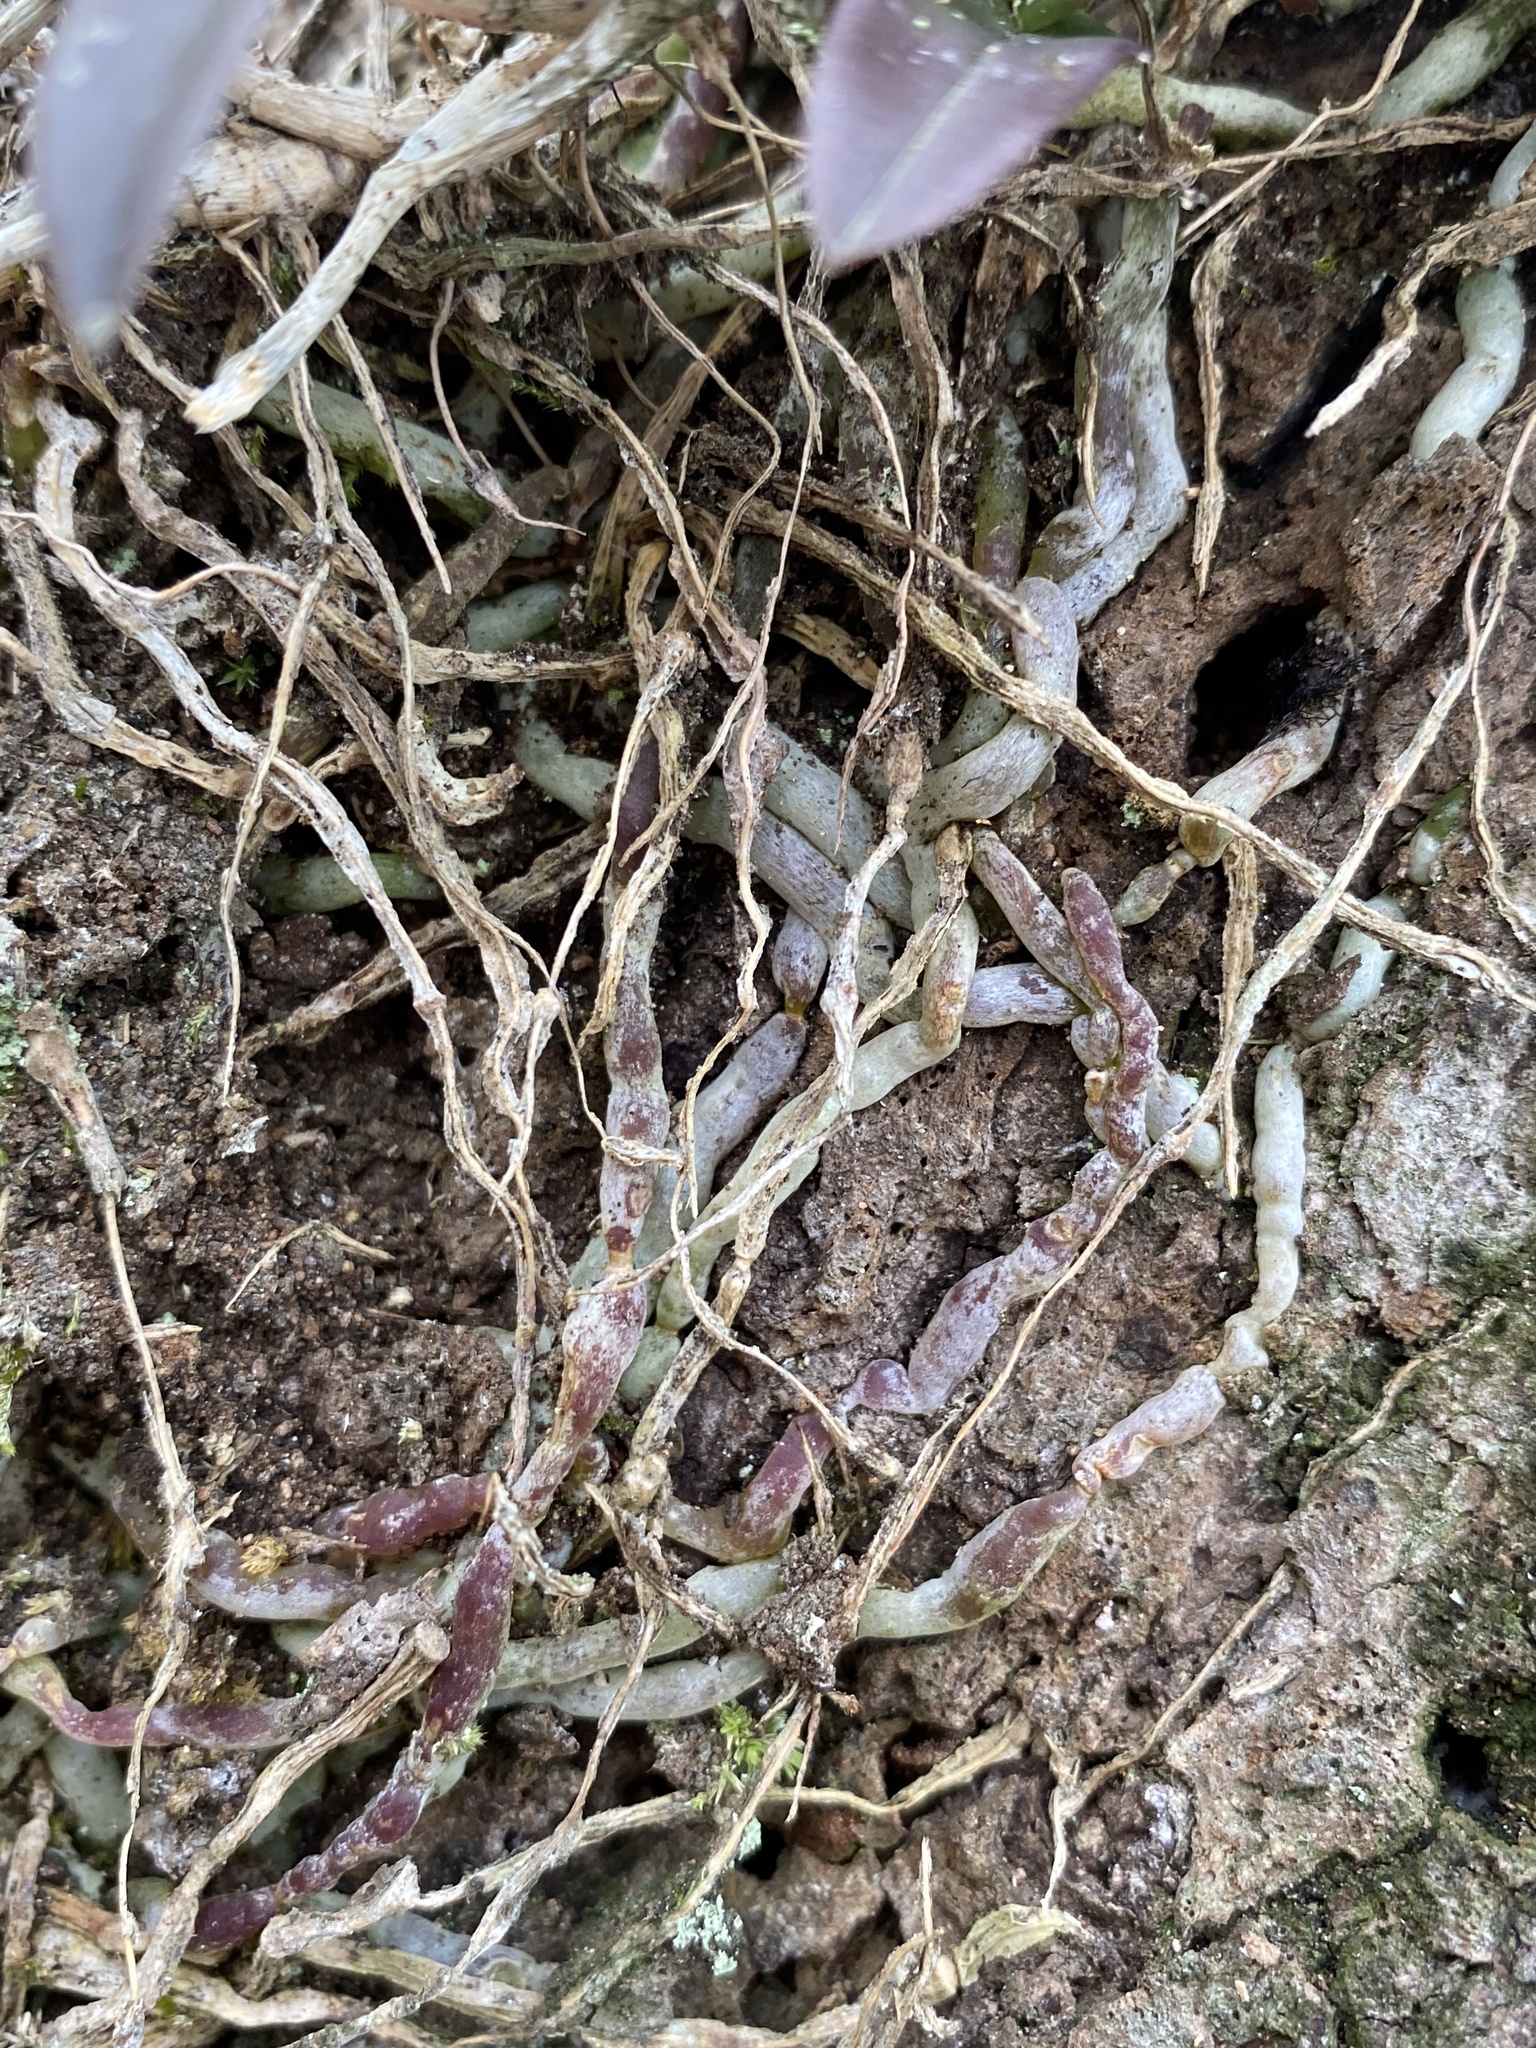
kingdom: Plantae
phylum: Tracheophyta
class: Liliopsida
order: Asparagales
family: Orchidaceae
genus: Epidendrum
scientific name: Epidendrum conopseum
